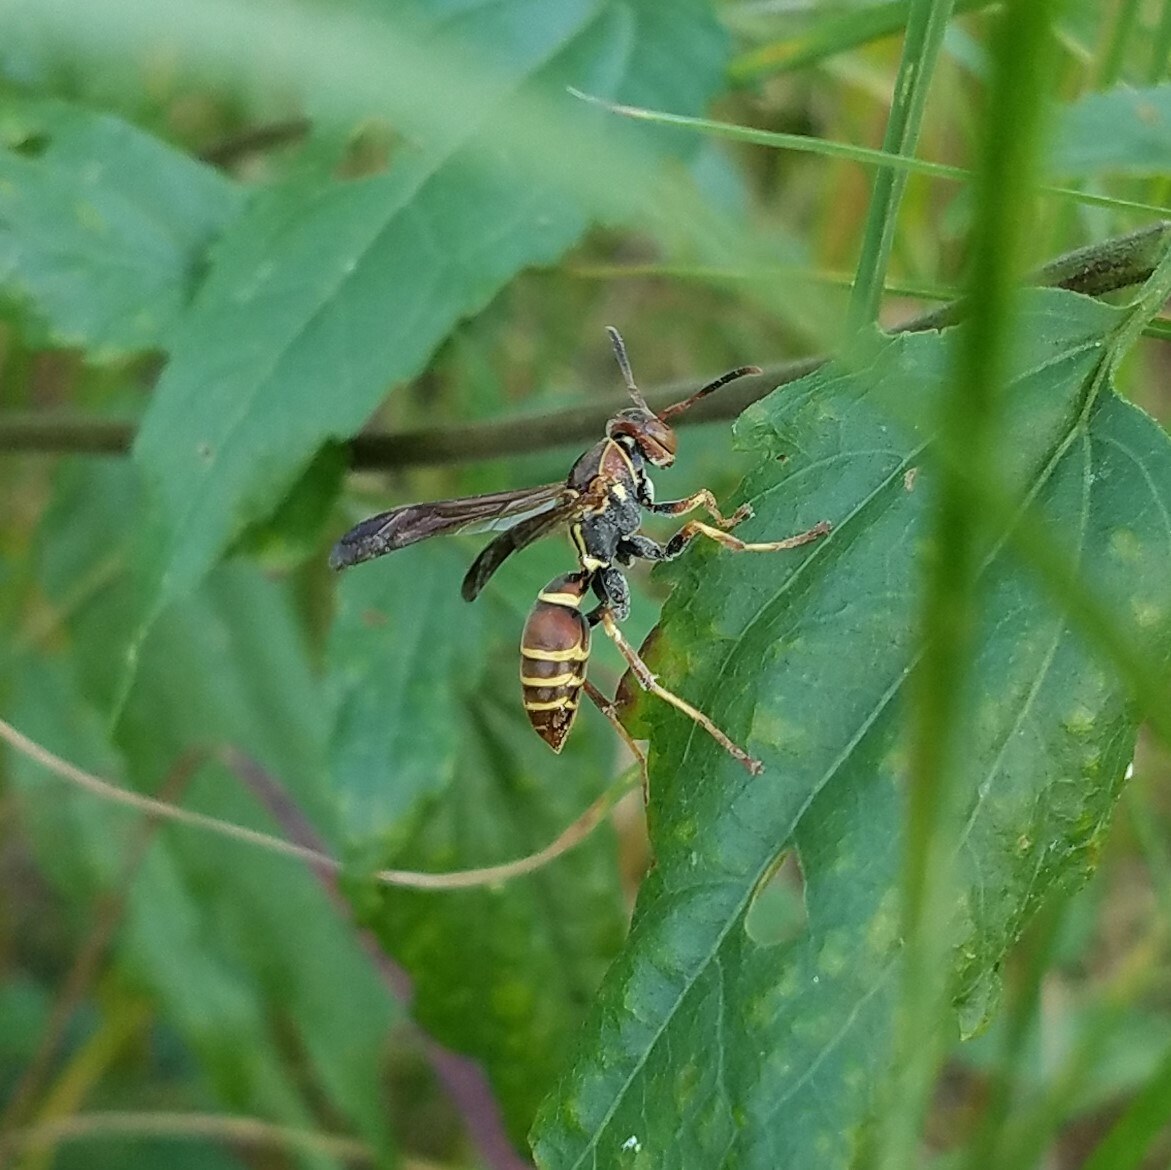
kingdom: Animalia
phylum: Arthropoda
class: Insecta
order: Hymenoptera
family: Eumenidae
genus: Polistes
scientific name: Polistes dorsalis
